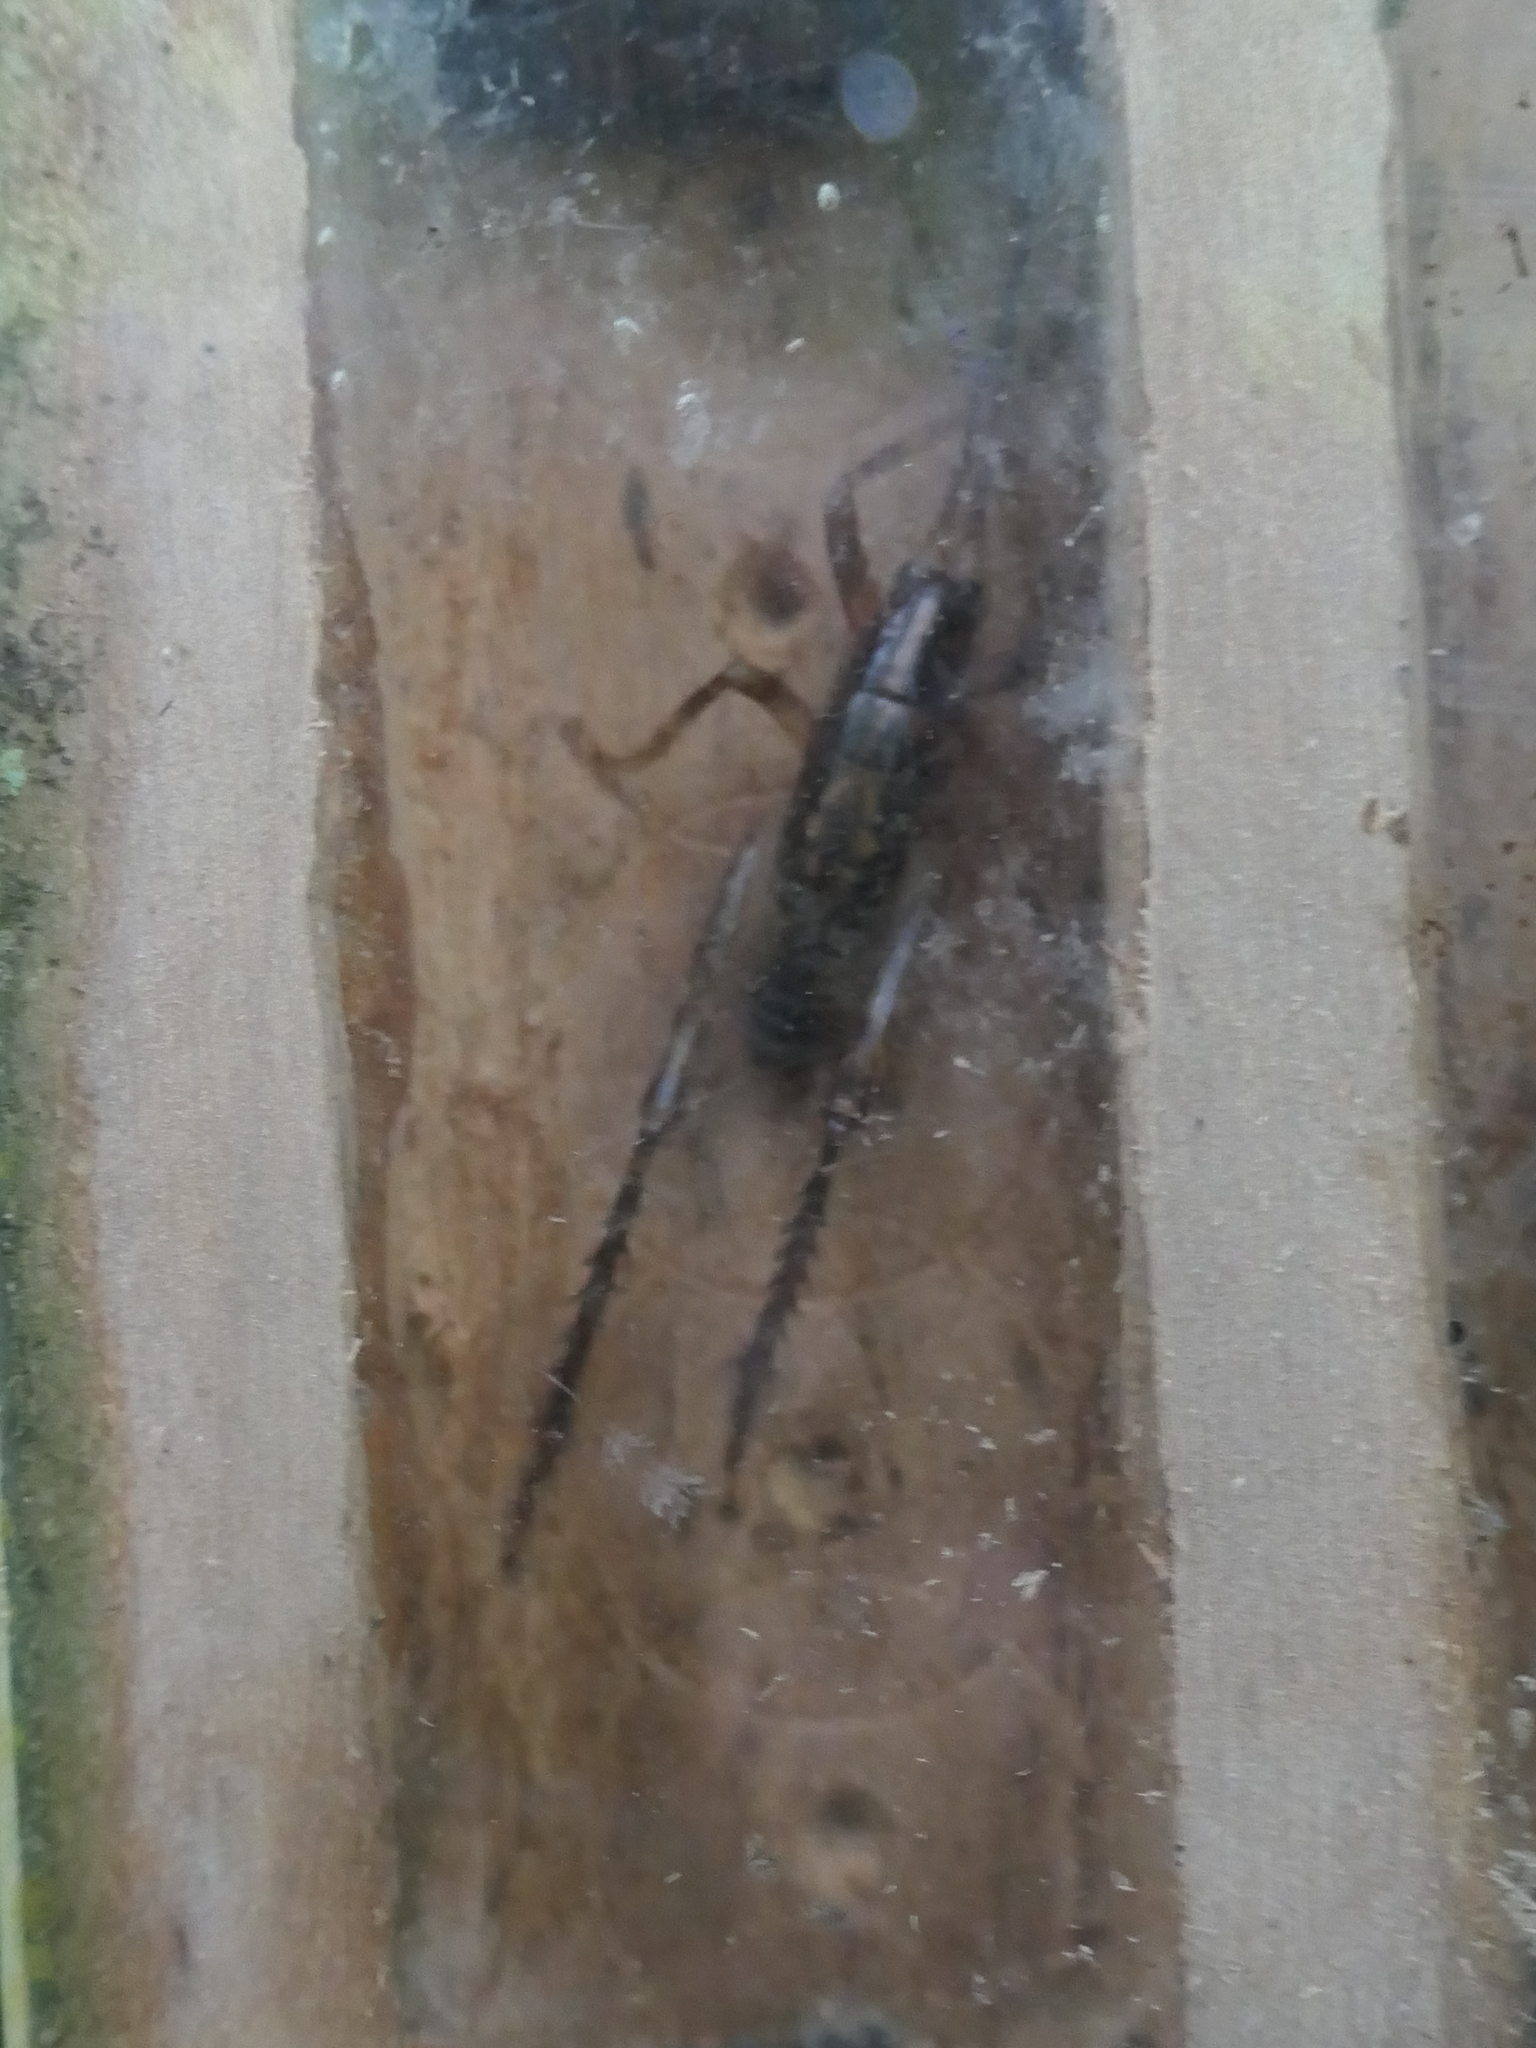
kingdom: Animalia
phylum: Arthropoda
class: Insecta
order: Orthoptera
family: Rhaphidophoridae
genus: Talitropsis
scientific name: Talitropsis sedilloti
